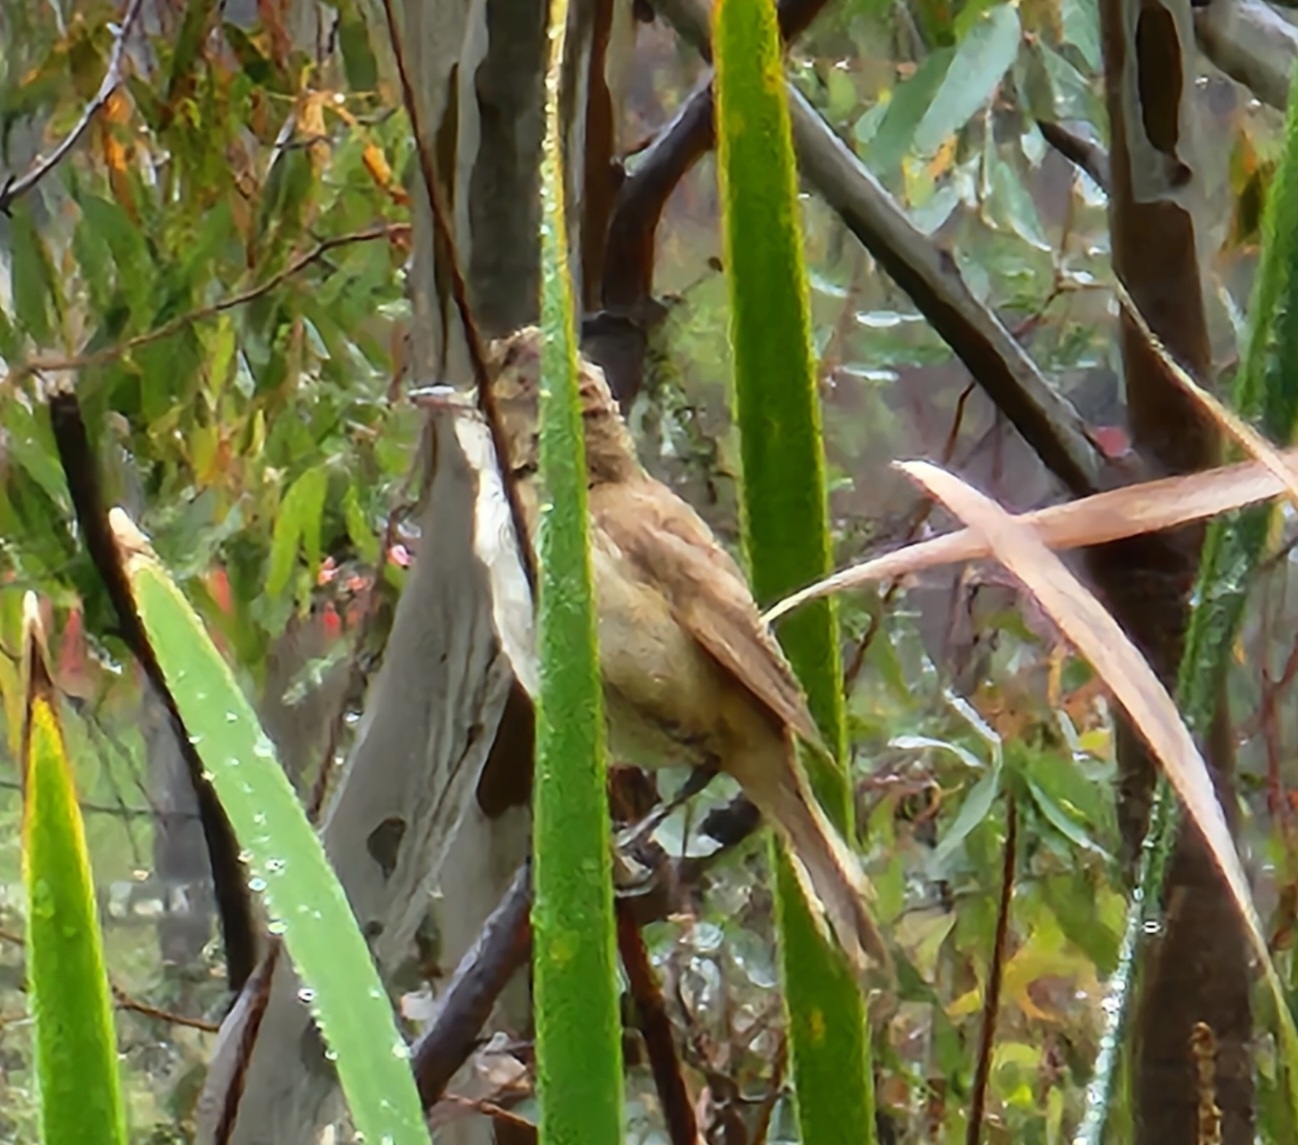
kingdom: Animalia
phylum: Chordata
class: Aves
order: Passeriformes
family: Acrocephalidae
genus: Acrocephalus
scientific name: Acrocephalus australis
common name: Australian reed warbler
